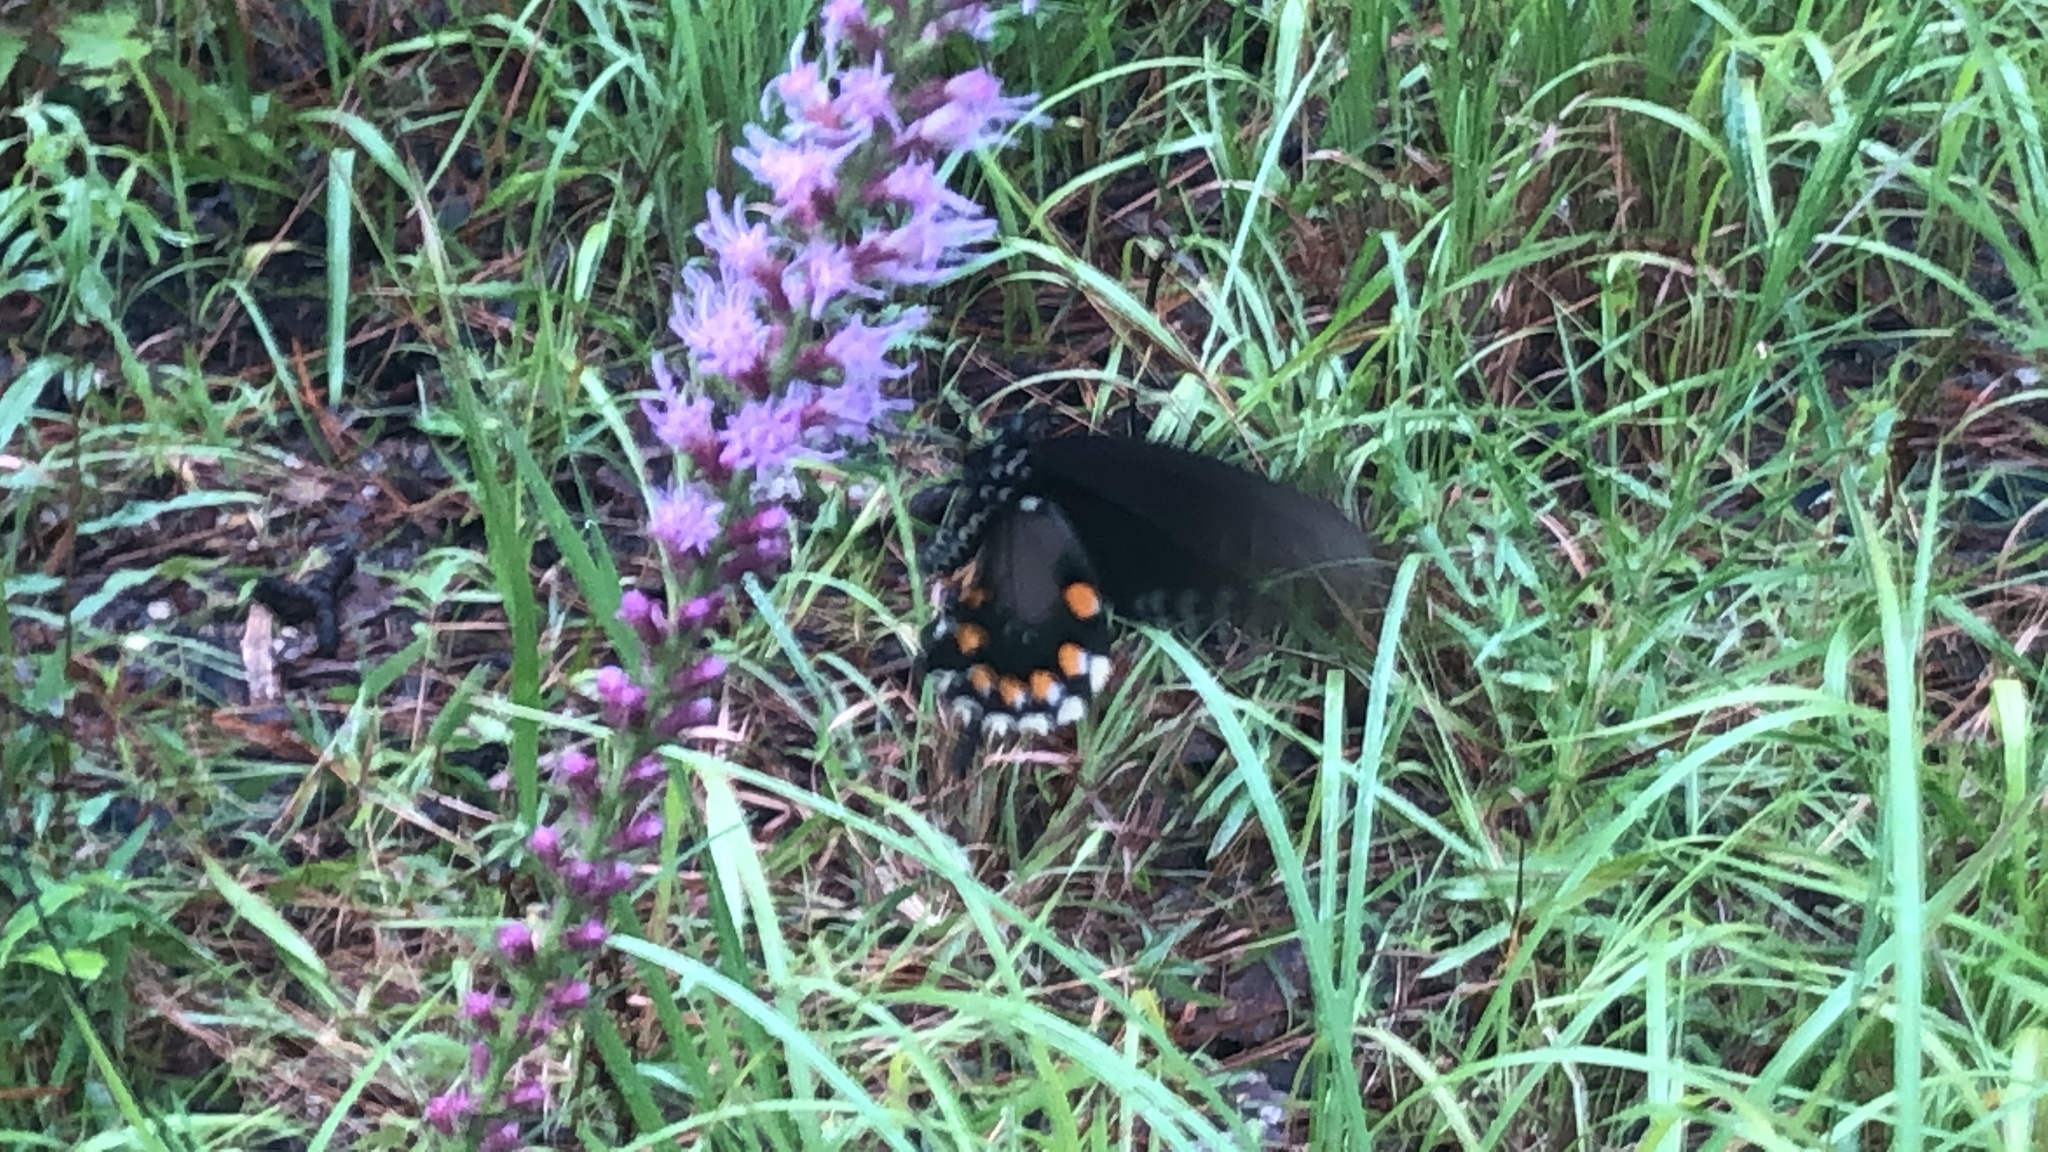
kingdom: Animalia
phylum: Arthropoda
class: Insecta
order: Lepidoptera
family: Papilionidae
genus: Battus
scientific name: Battus philenor
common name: Pipevine swallowtail
